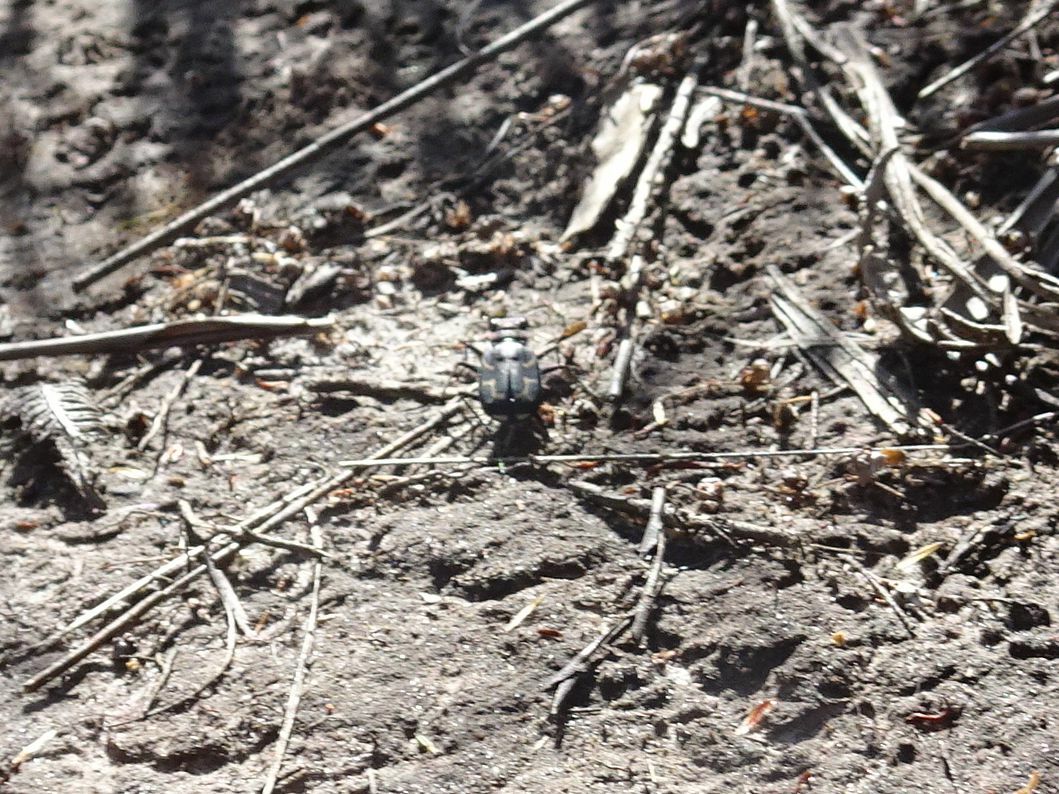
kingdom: Animalia
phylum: Arthropoda
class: Insecta
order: Coleoptera
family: Carabidae
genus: Cicindela
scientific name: Cicindela lurida
